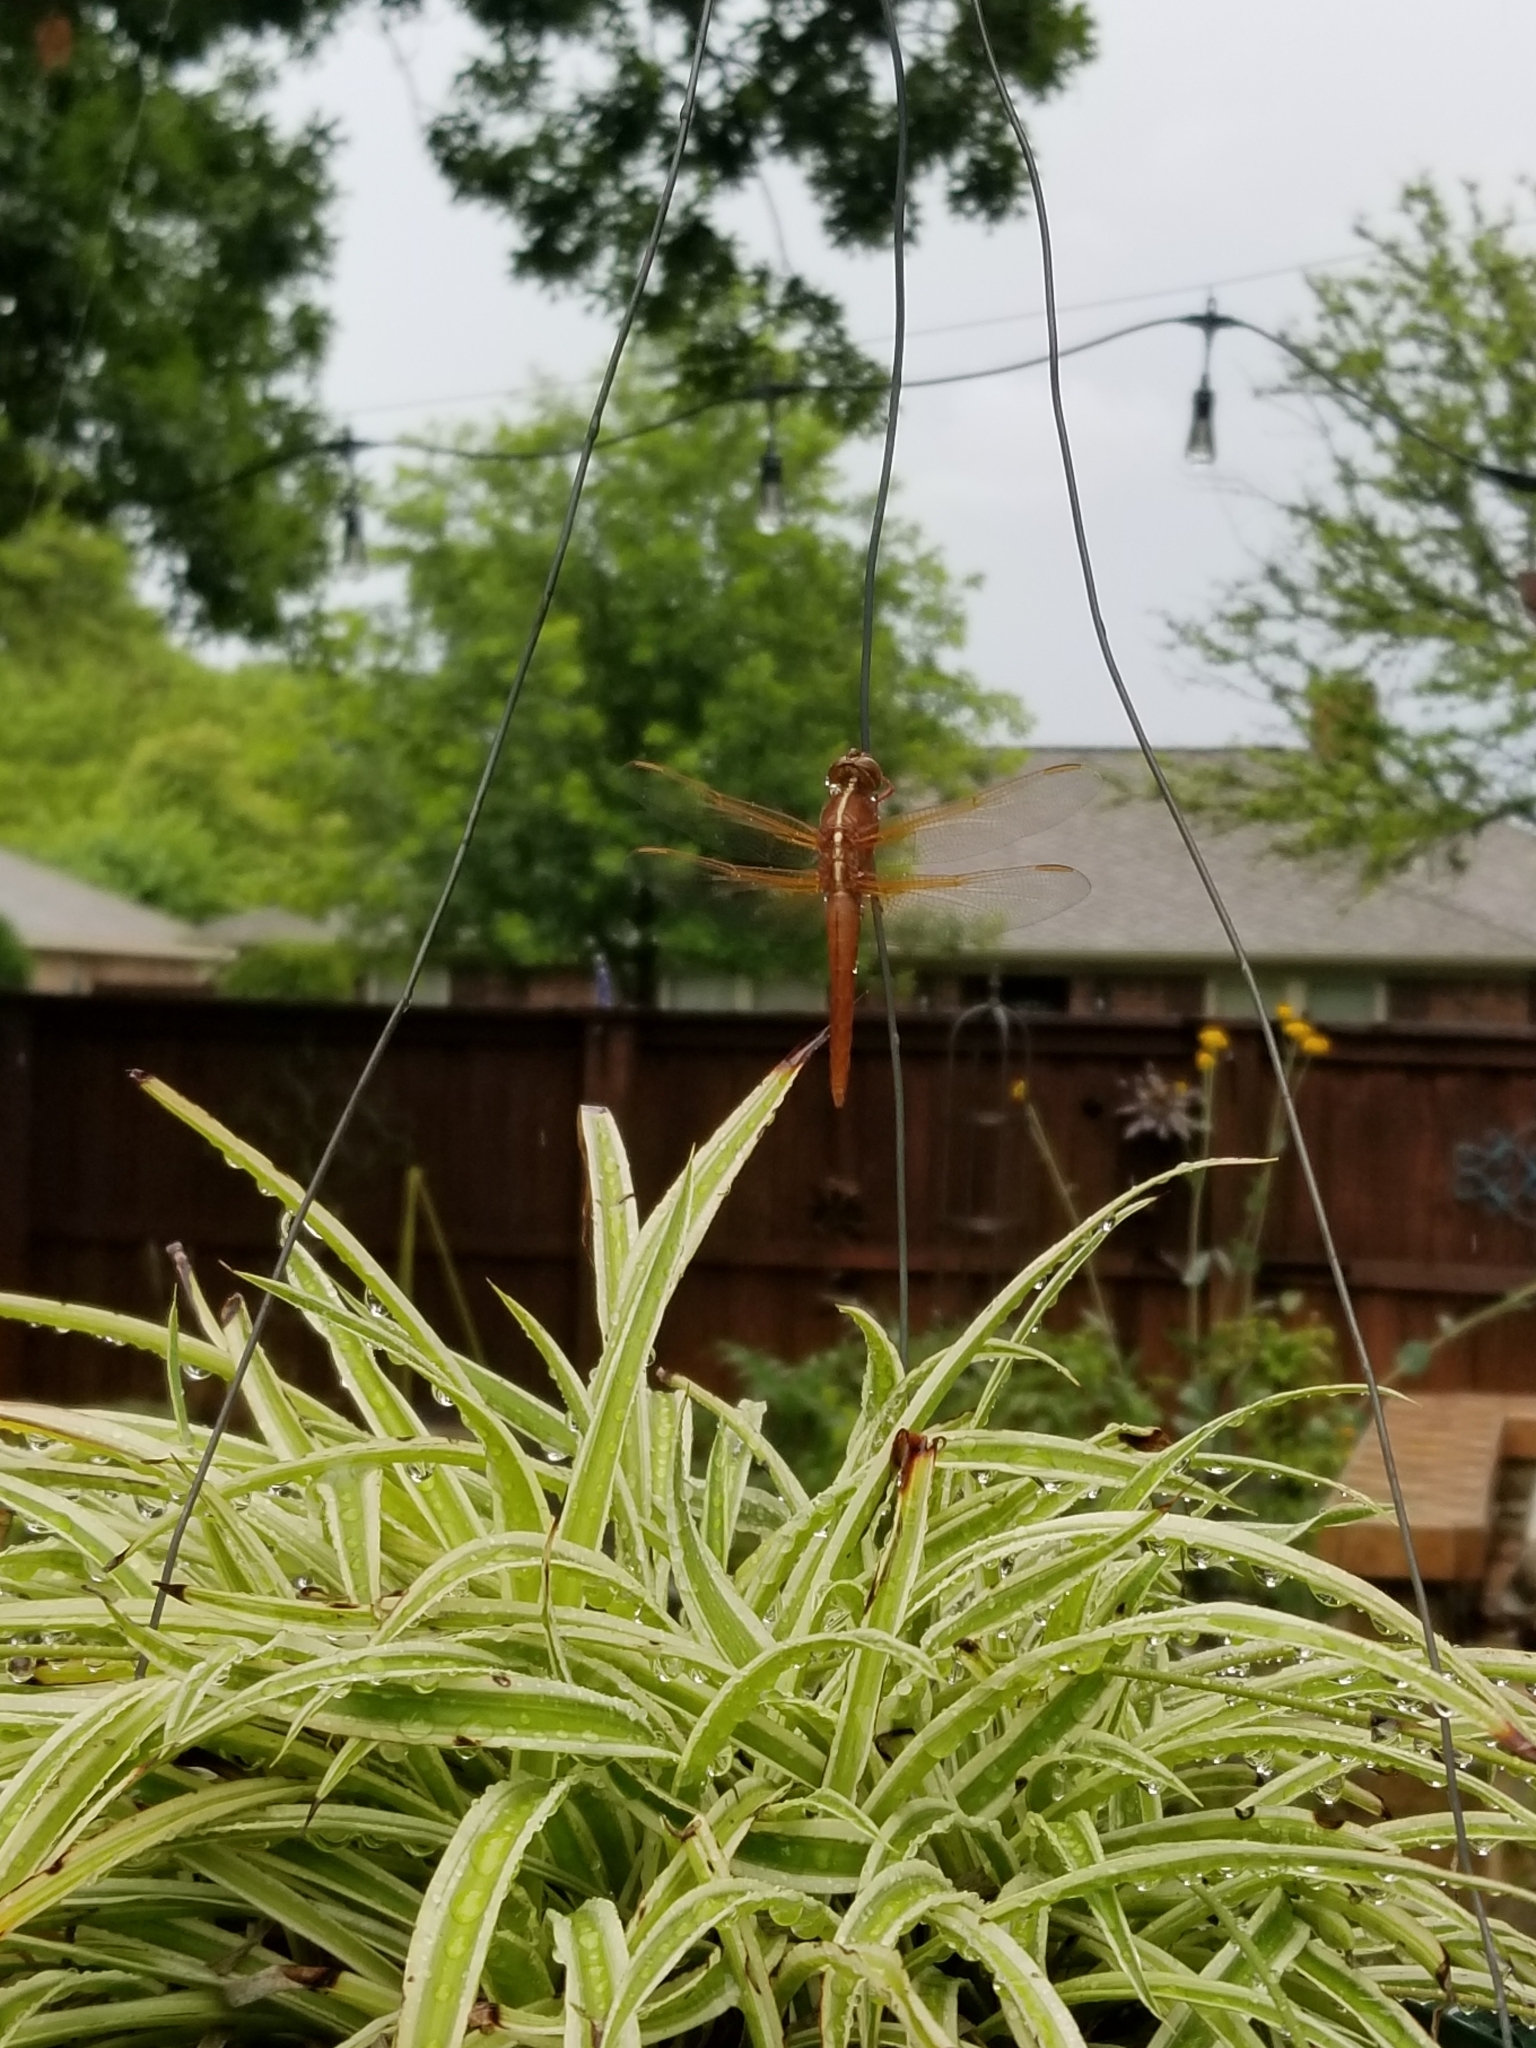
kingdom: Animalia
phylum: Arthropoda
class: Insecta
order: Odonata
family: Libellulidae
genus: Libellula
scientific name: Libellula croceipennis
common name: Neon skimmer
